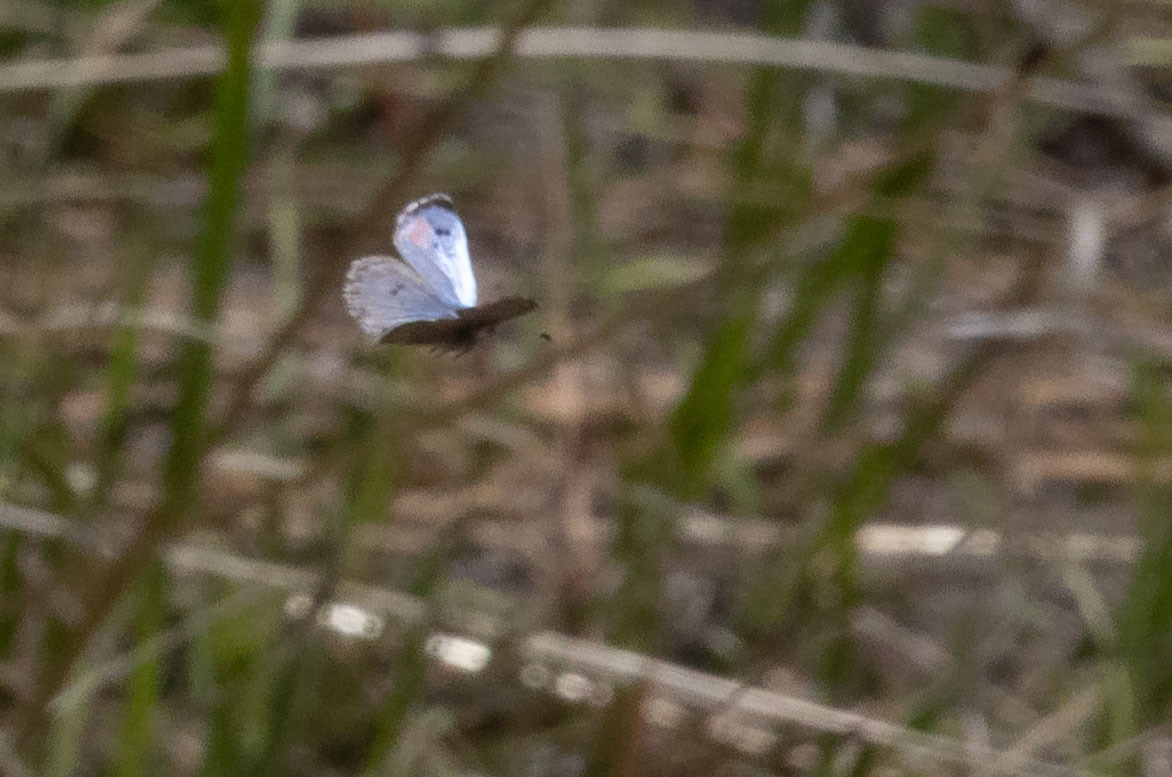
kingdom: Animalia
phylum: Arthropoda
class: Insecta
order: Lepidoptera
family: Lycaenidae
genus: Philotes
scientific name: Philotes sonorensis
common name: Sonoran blue
